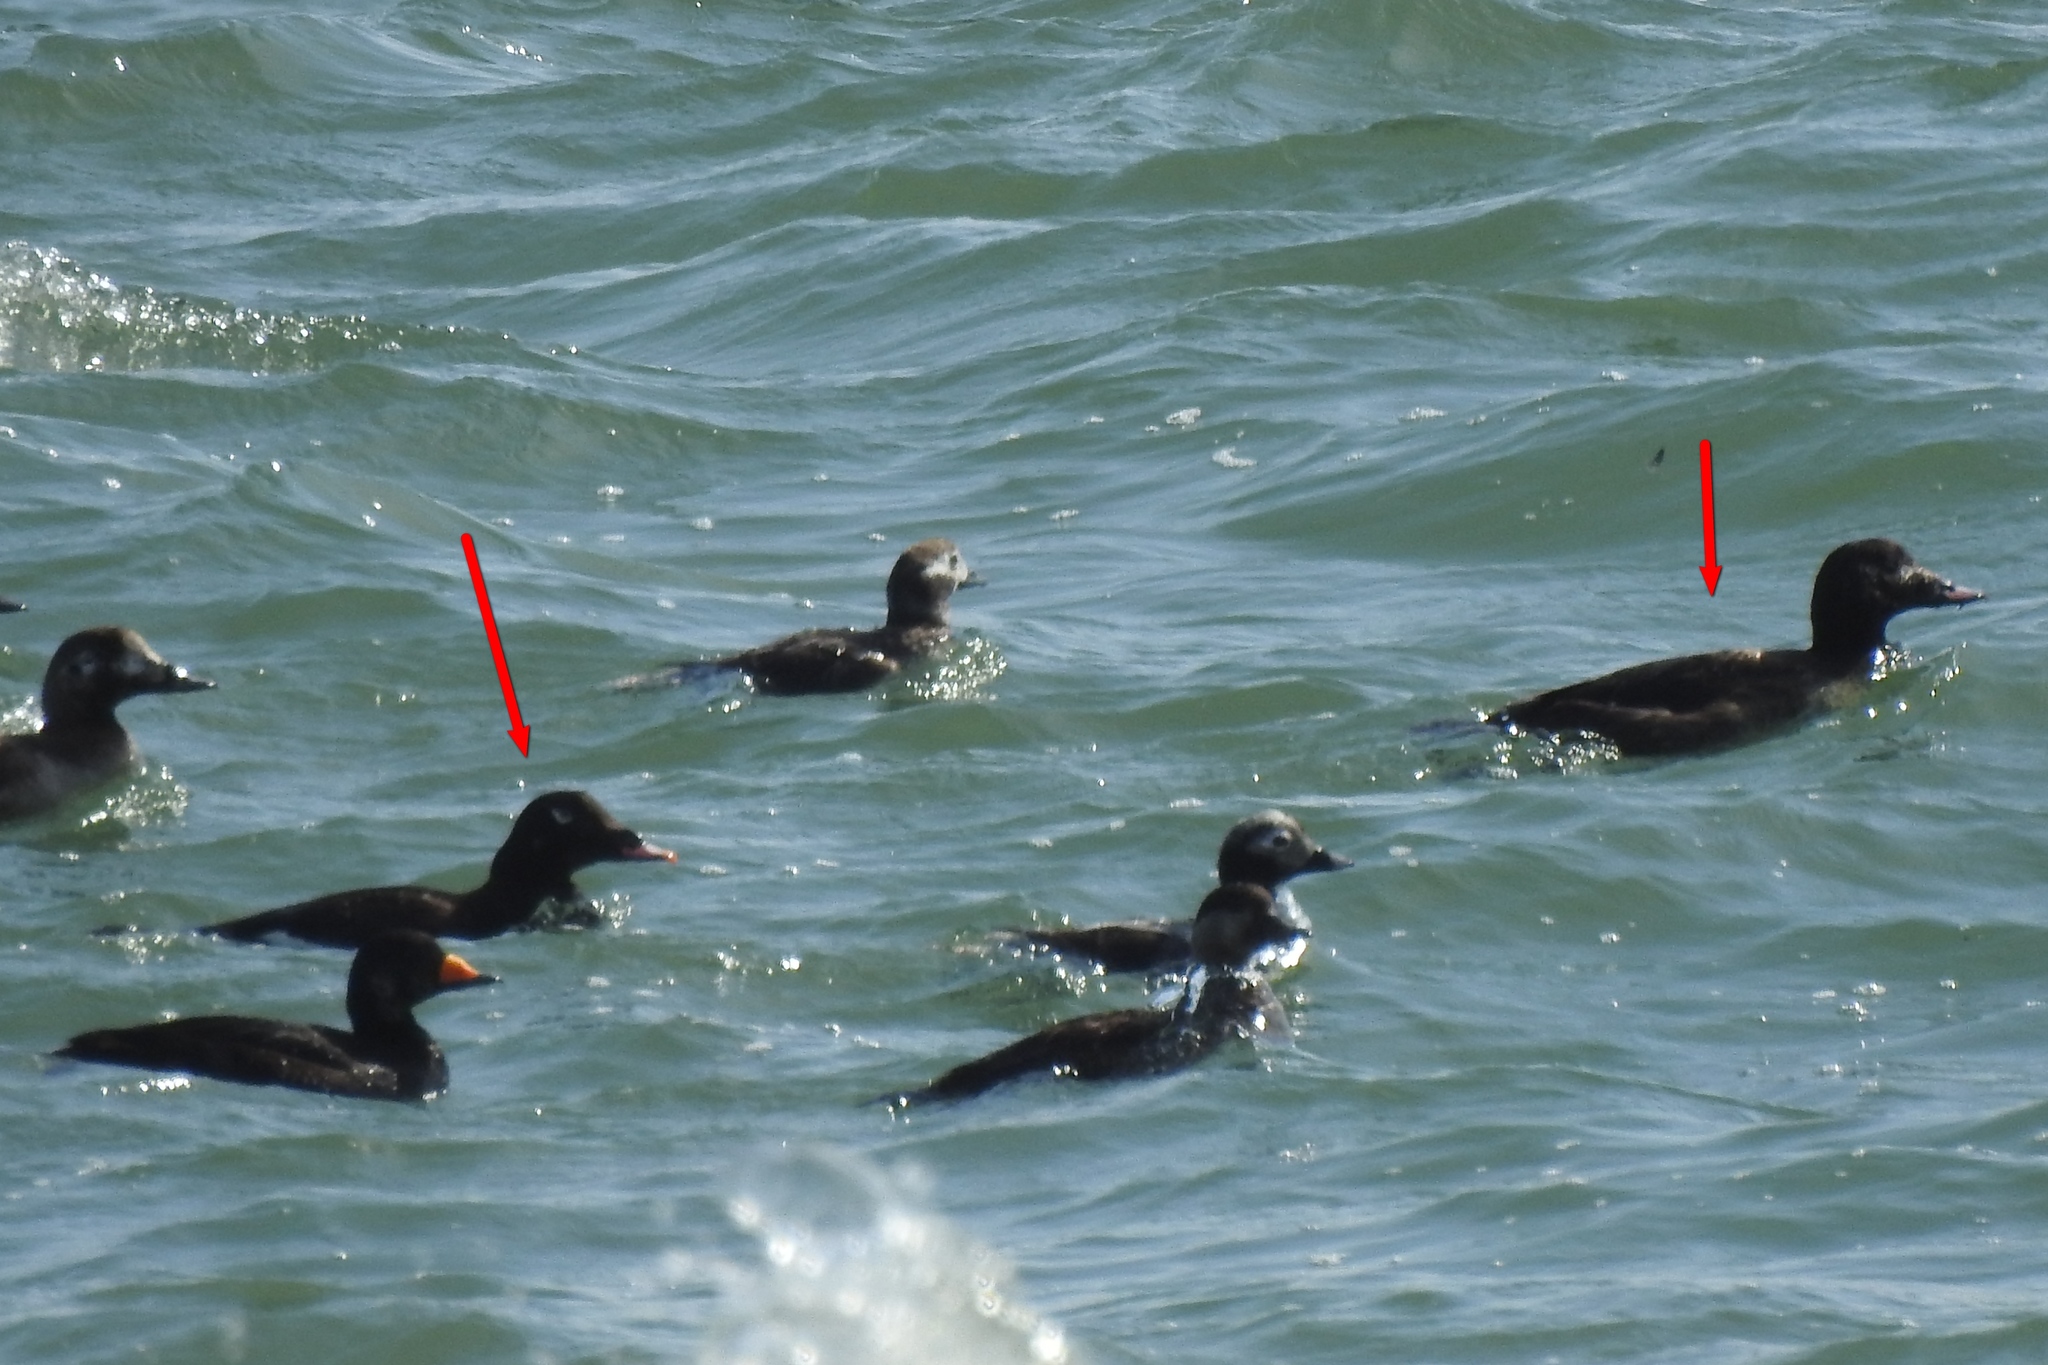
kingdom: Animalia
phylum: Chordata
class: Aves
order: Anseriformes
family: Anatidae
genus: Melanitta
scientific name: Melanitta deglandi
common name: White-winged scoter
